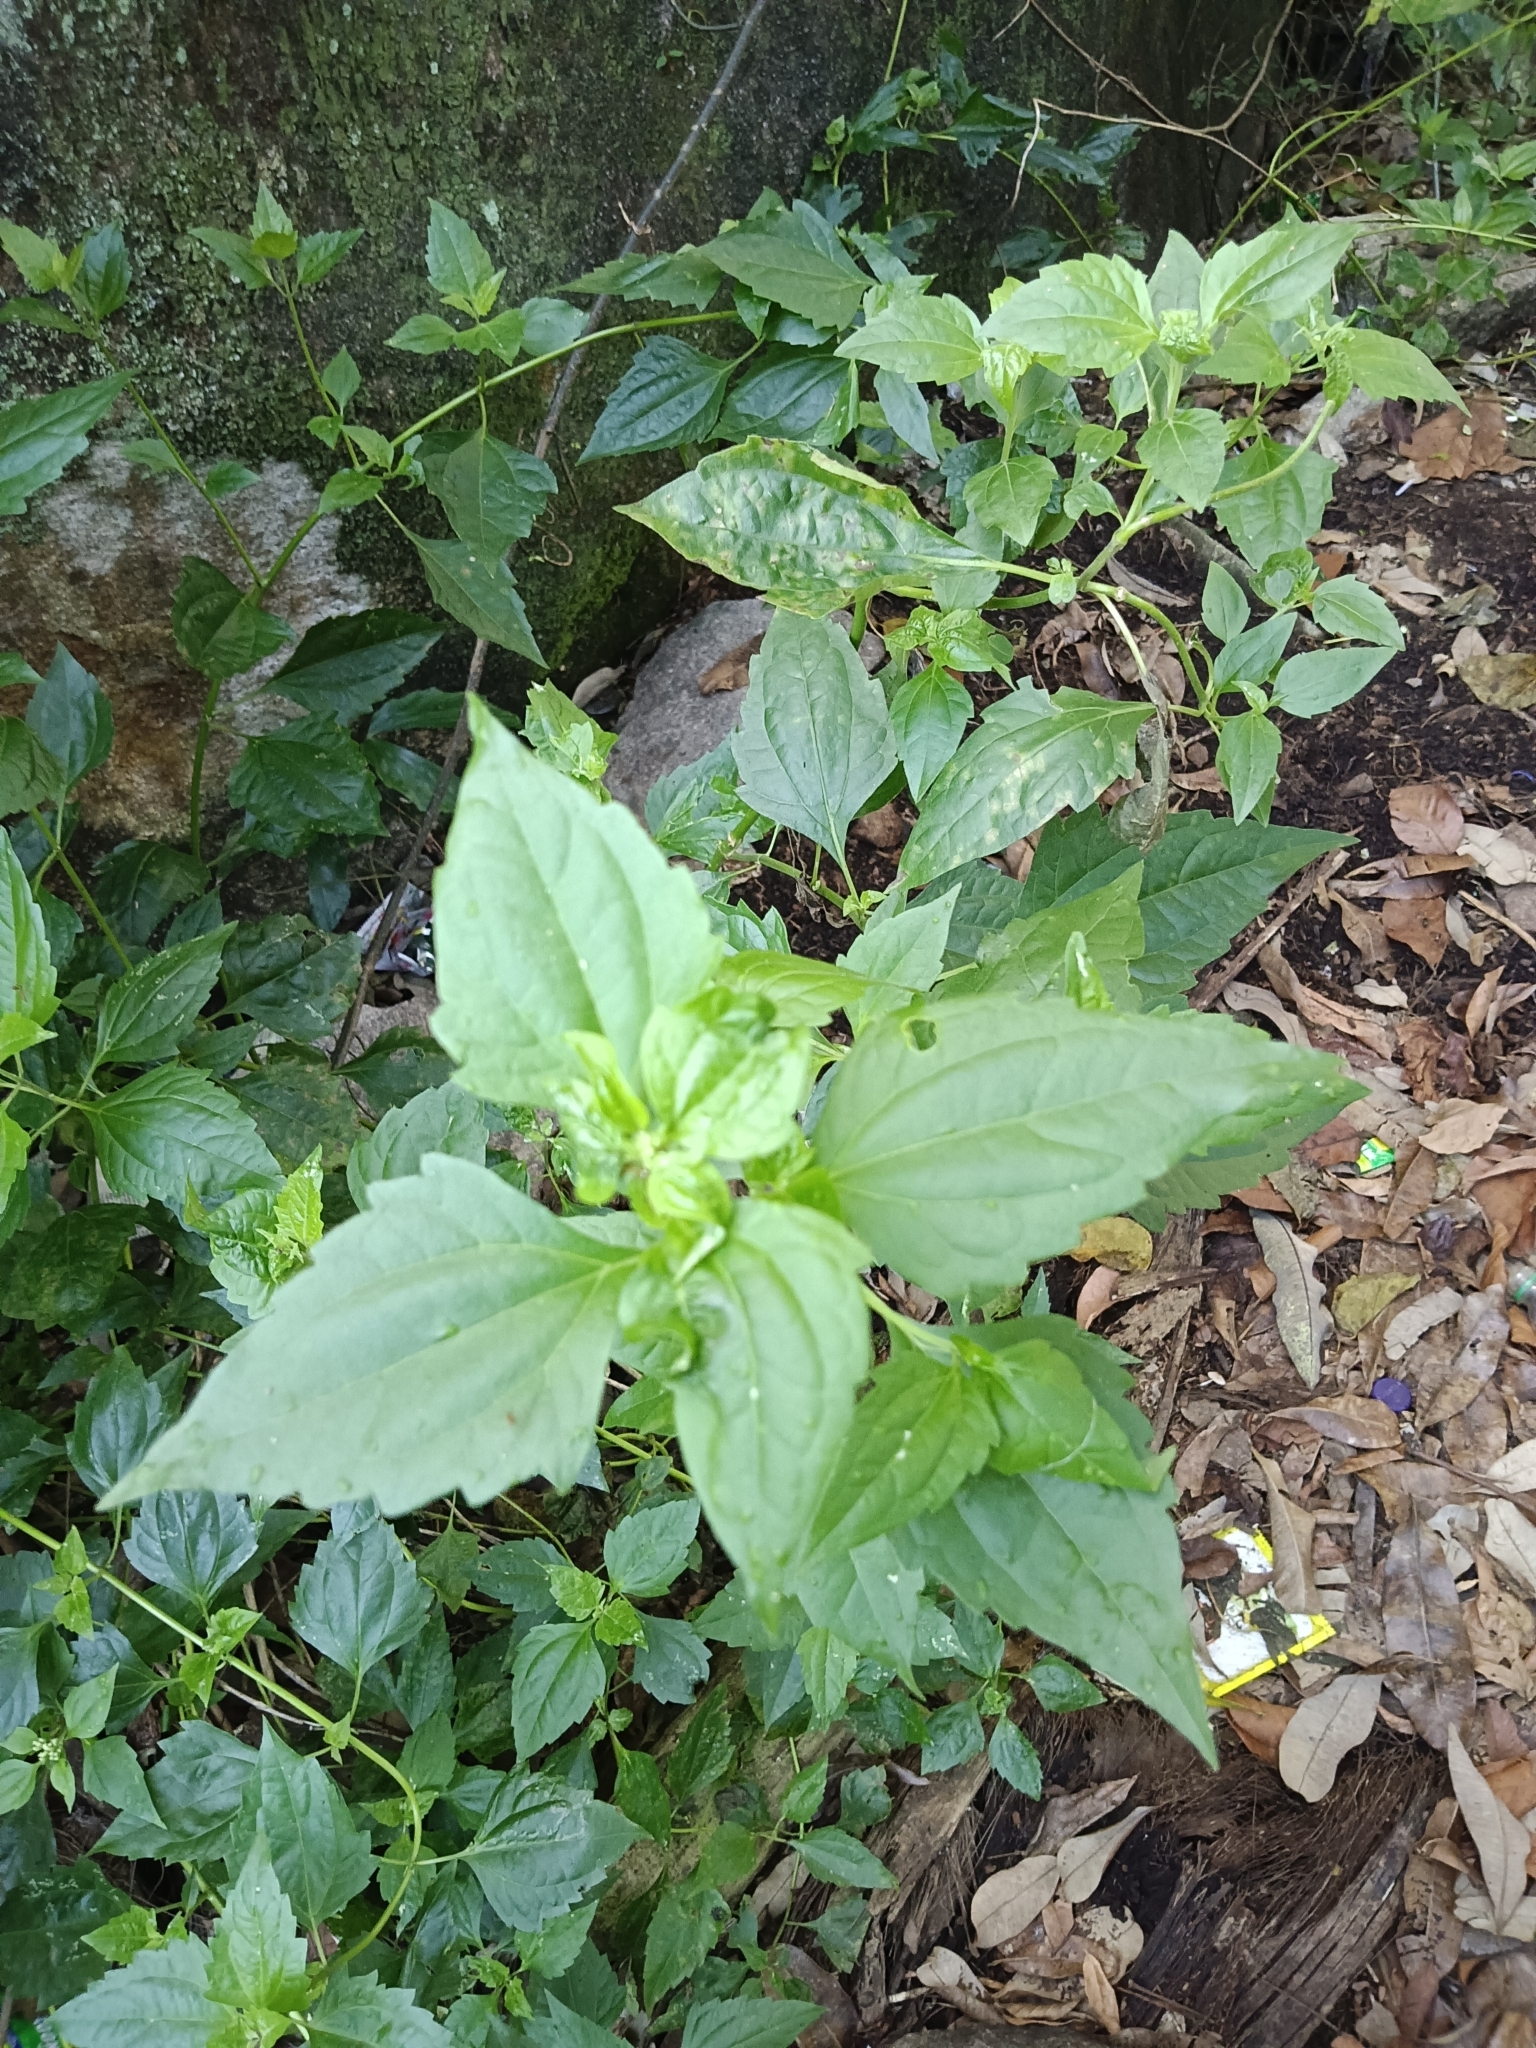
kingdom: Plantae
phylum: Tracheophyta
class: Magnoliopsida
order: Asterales
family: Asteraceae
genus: Chromolaena
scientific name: Chromolaena odorata
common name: Siamweed
